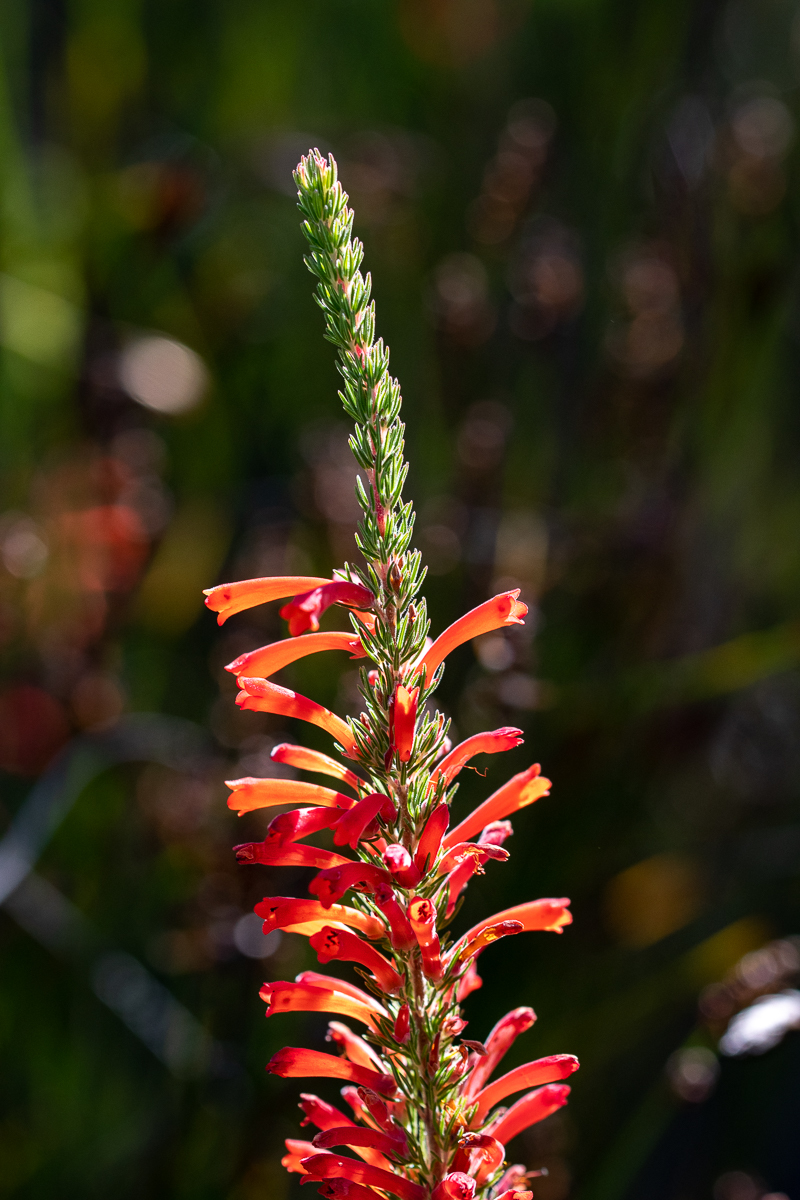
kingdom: Plantae
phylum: Tracheophyta
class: Magnoliopsida
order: Ericales
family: Ericaceae
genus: Erica
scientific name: Erica pillansii
